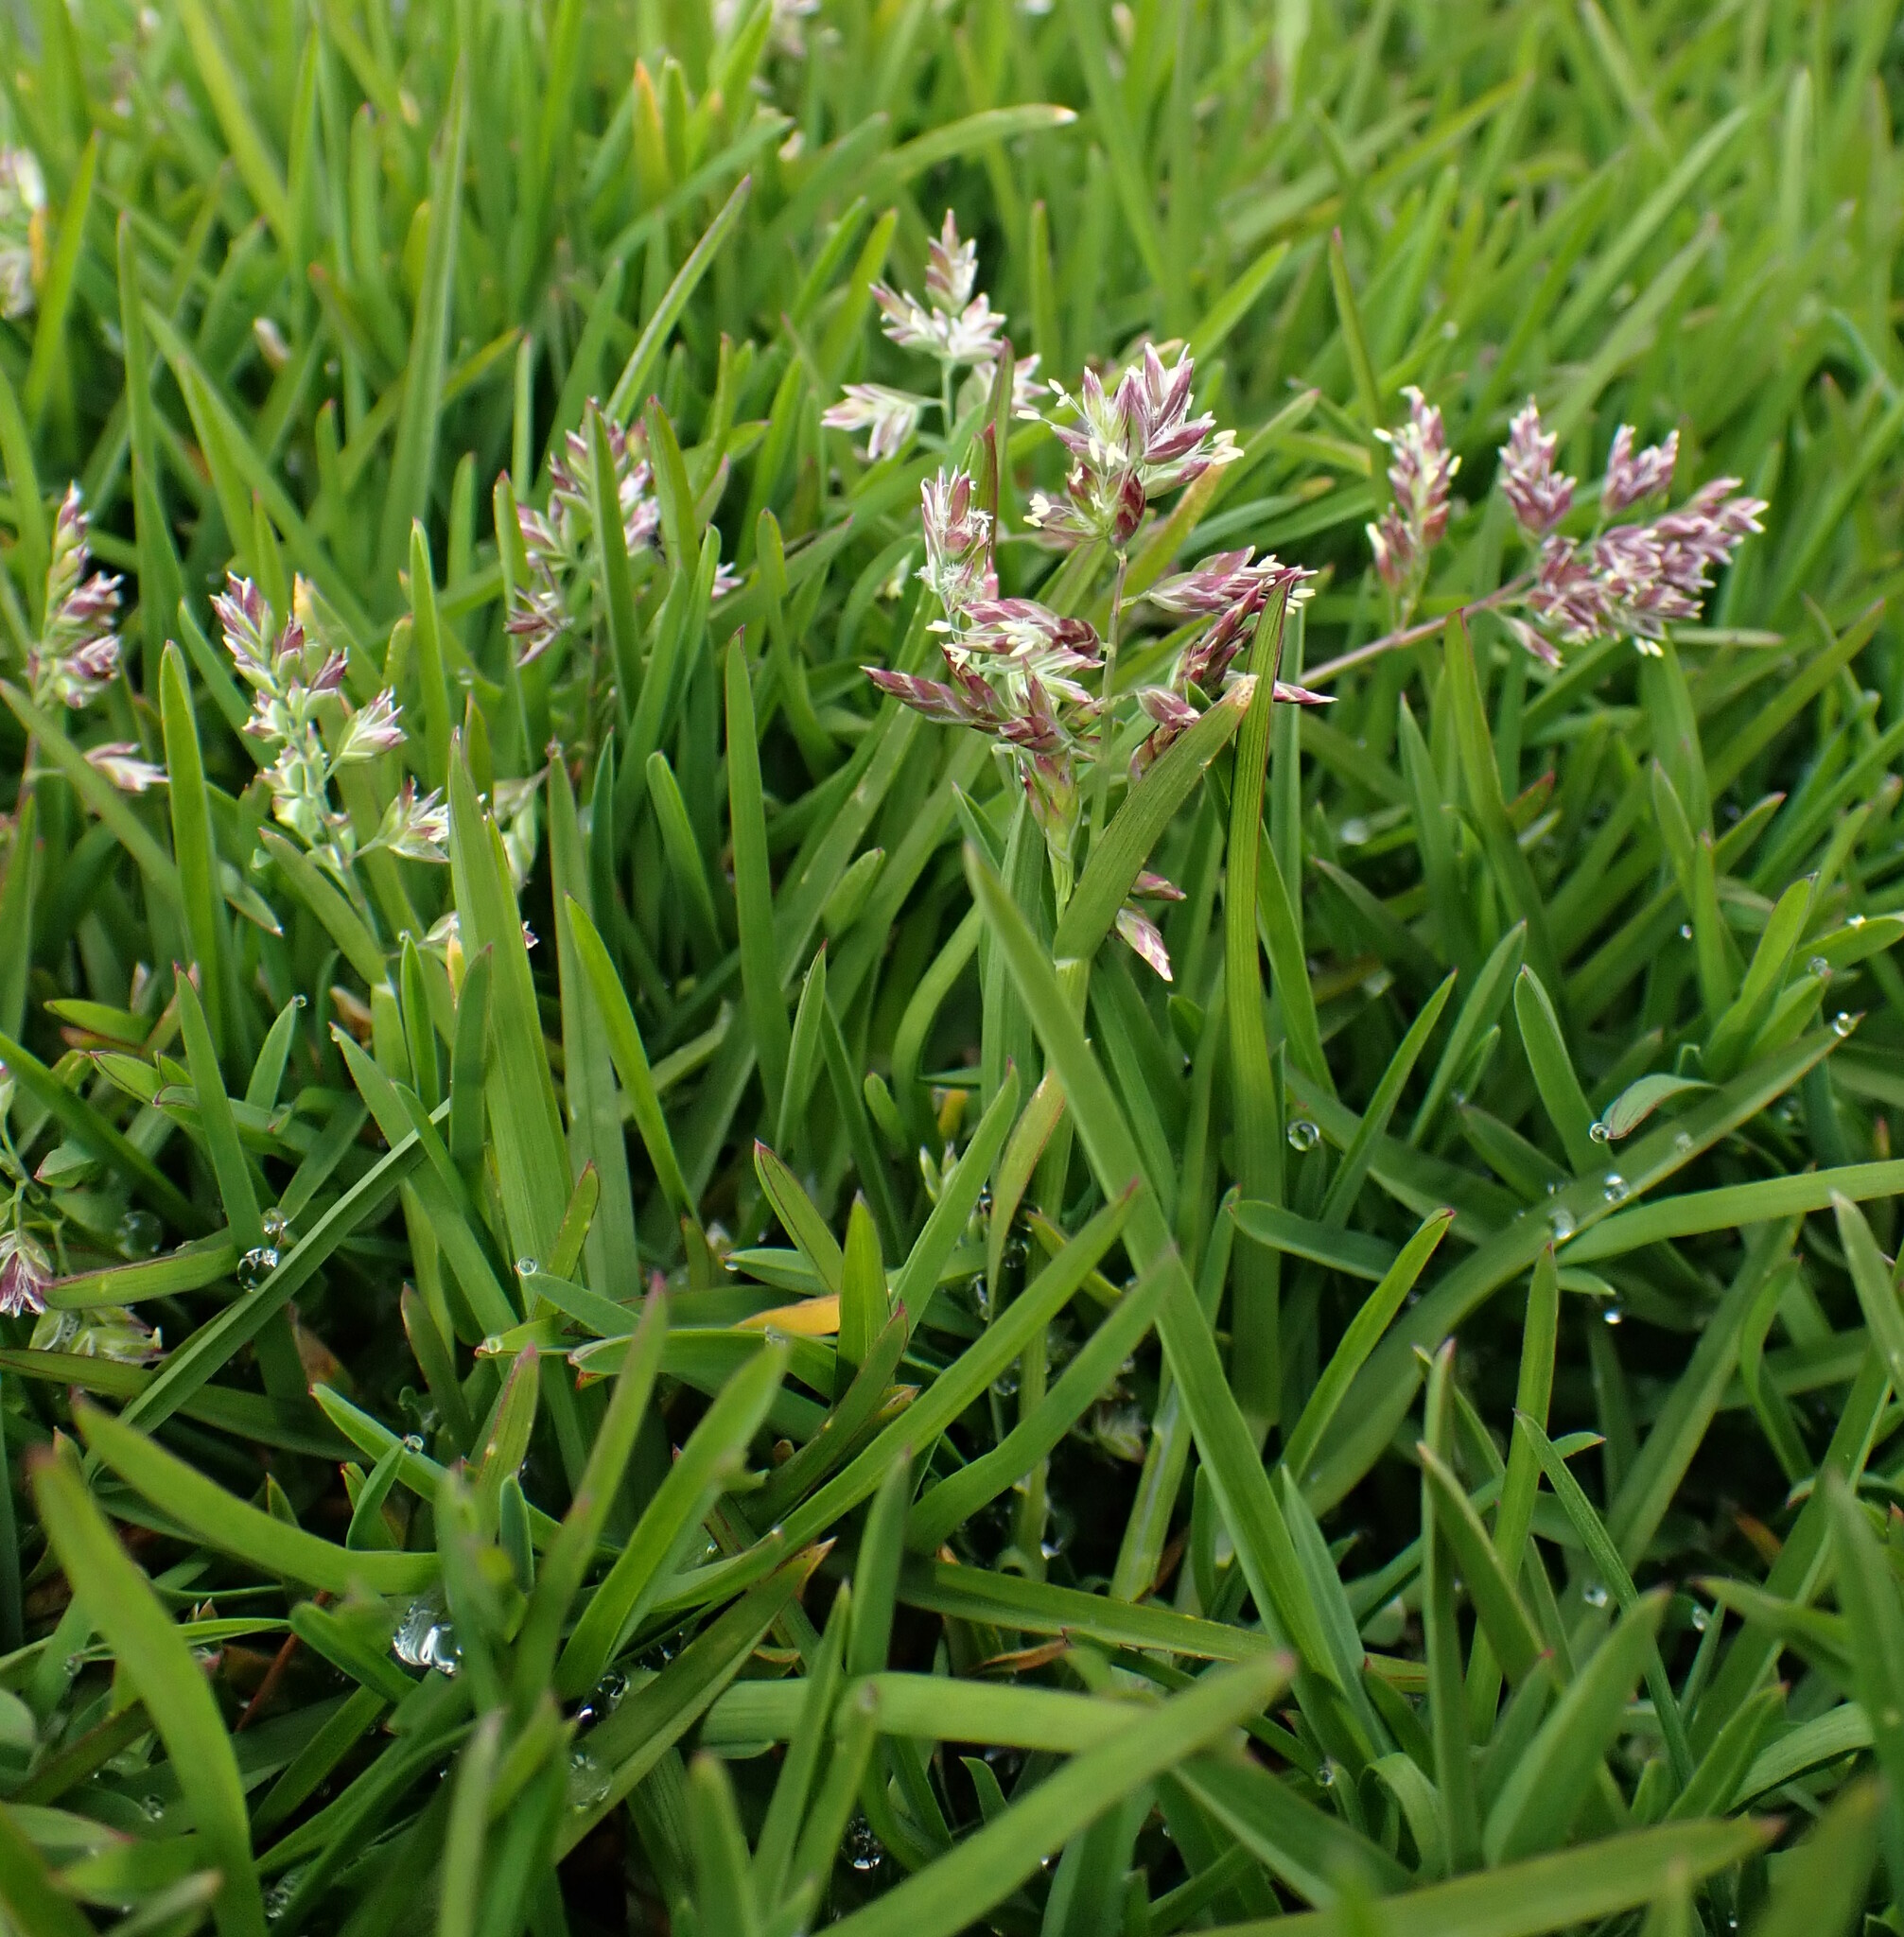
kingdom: Plantae
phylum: Tracheophyta
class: Liliopsida
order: Poales
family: Poaceae
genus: Poa
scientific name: Poa annua
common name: Annual bluegrass
